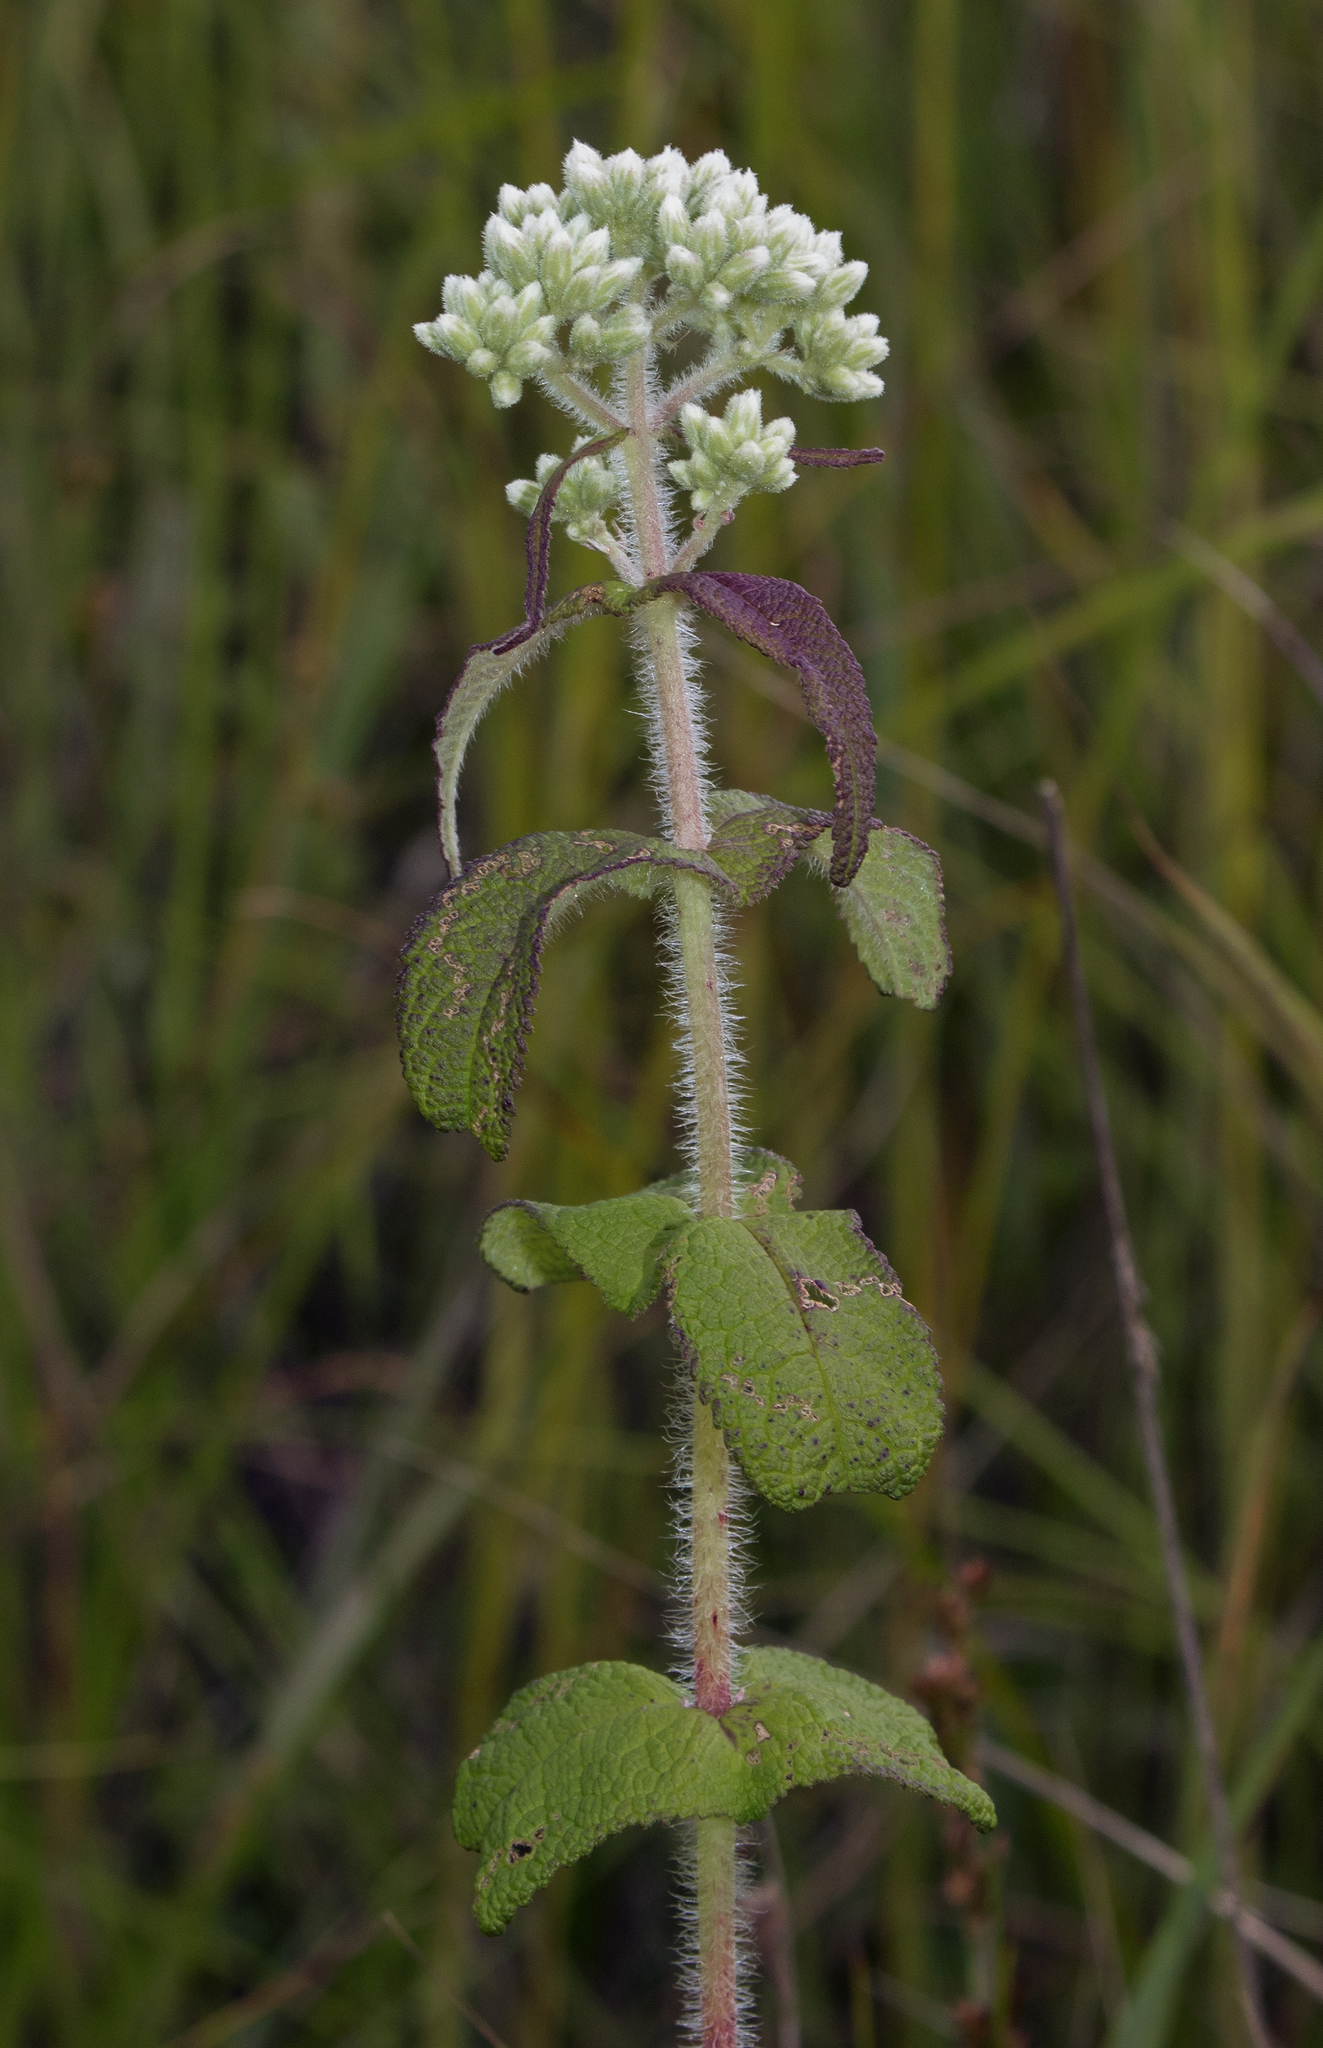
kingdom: Plantae
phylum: Tracheophyta
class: Magnoliopsida
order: Asterales
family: Asteraceae
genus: Eupatorium
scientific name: Eupatorium perfoliatum
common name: Boneset
